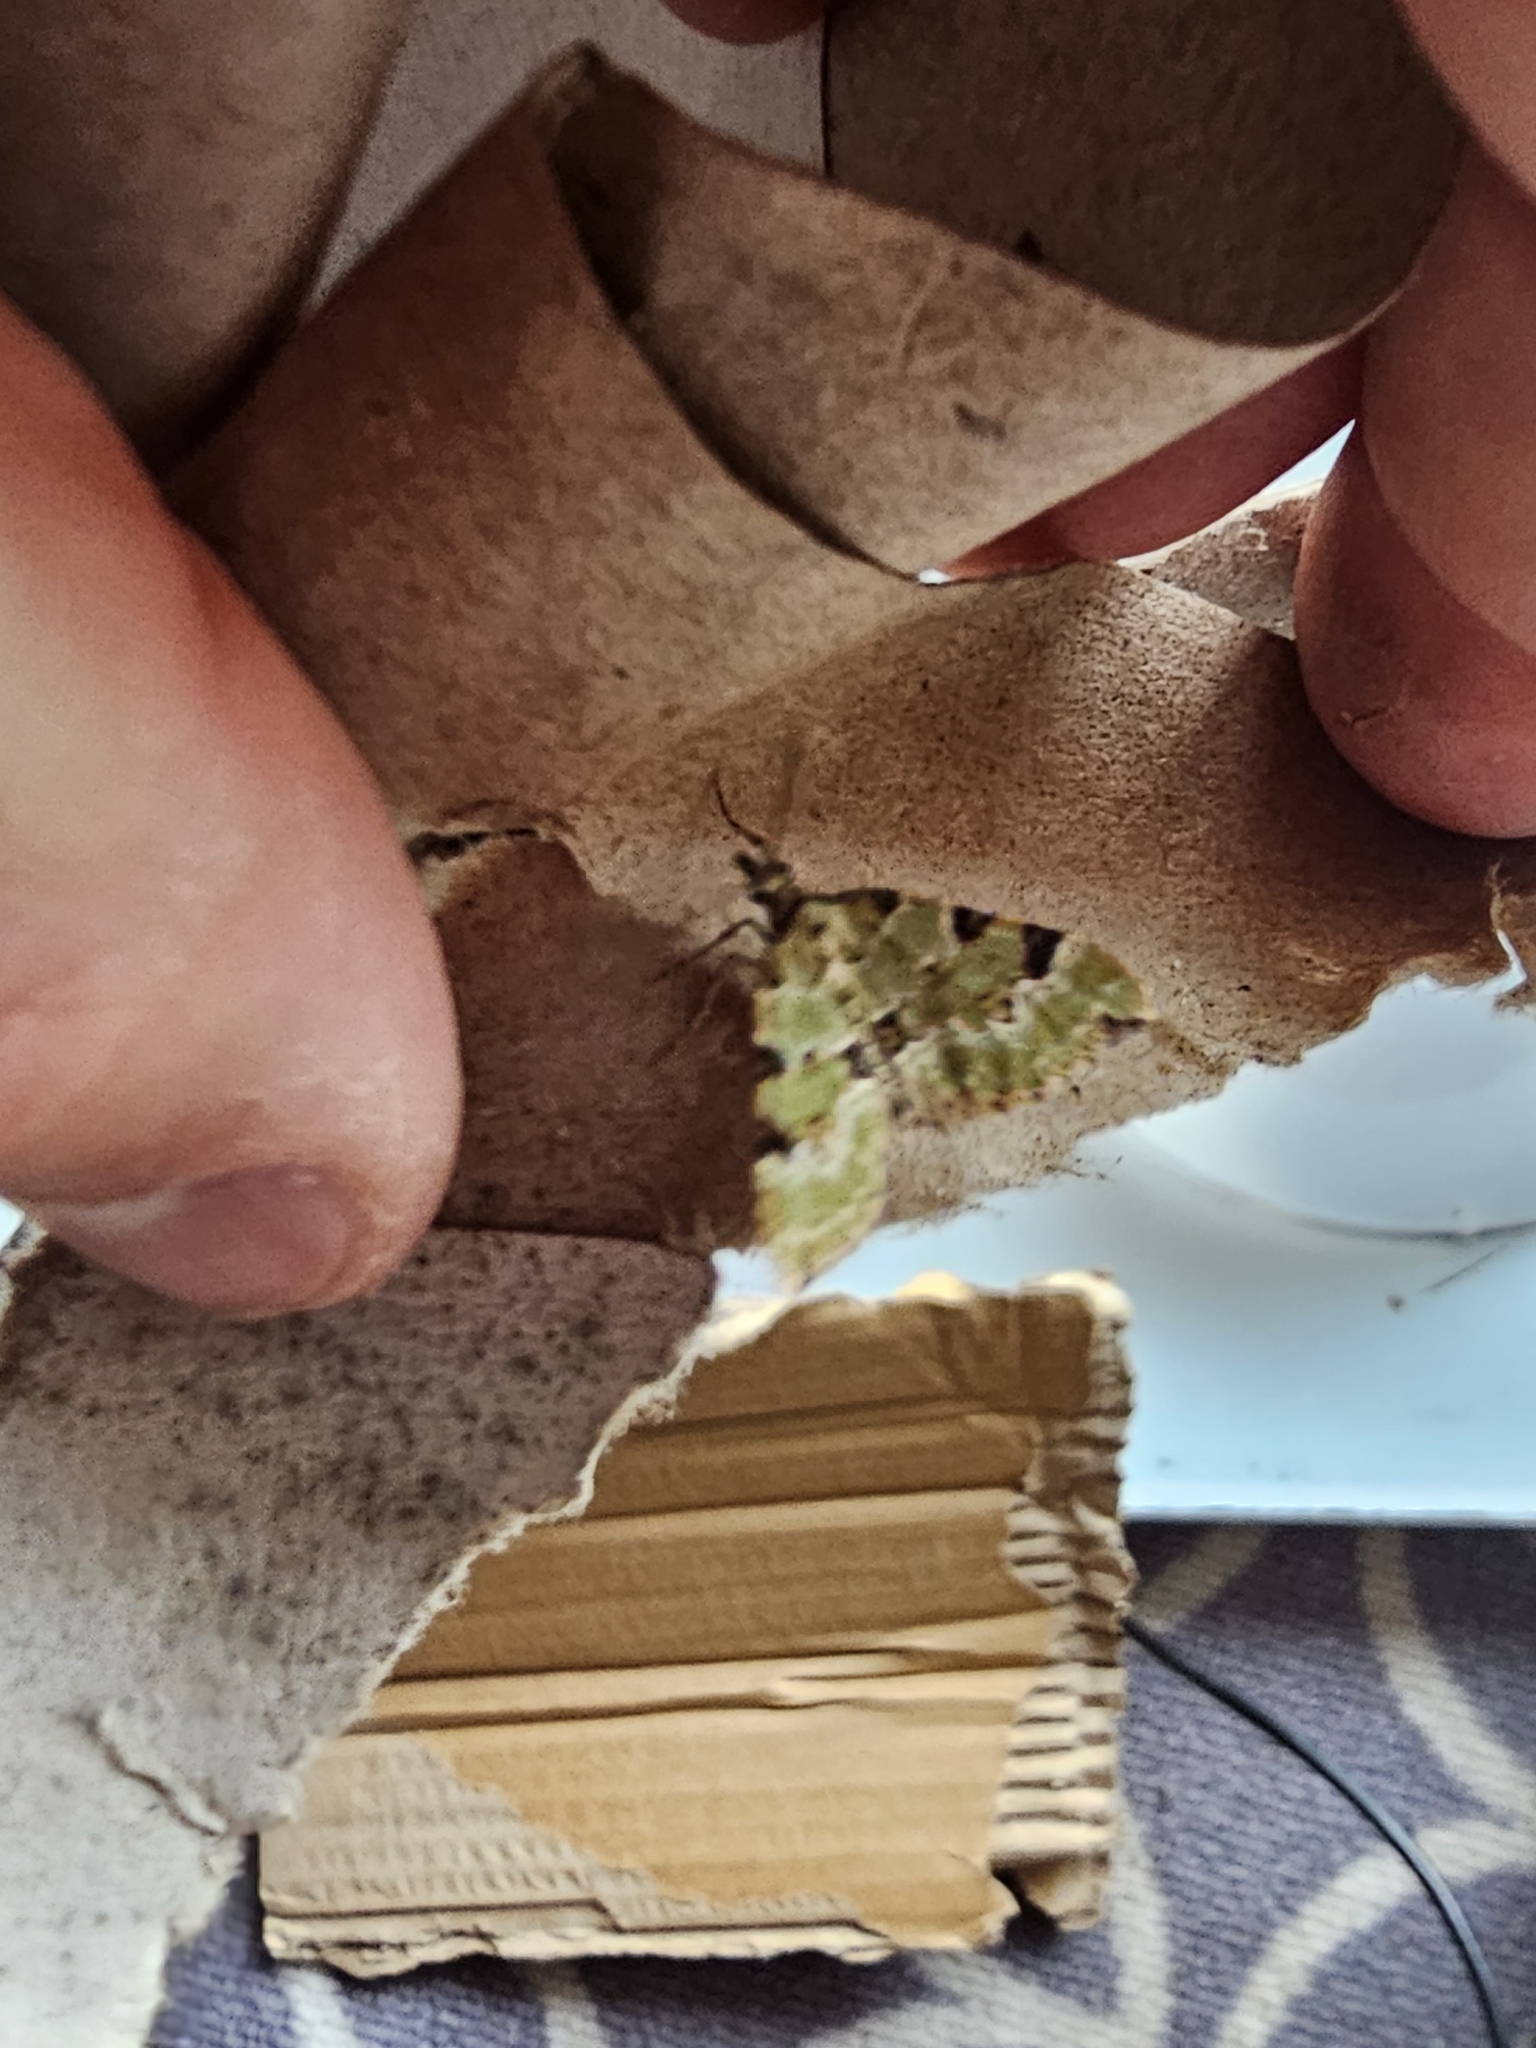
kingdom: Animalia
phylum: Arthropoda
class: Insecta
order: Lepidoptera
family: Geometridae
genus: Colostygia
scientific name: Colostygia pectinataria
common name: Green carpet
